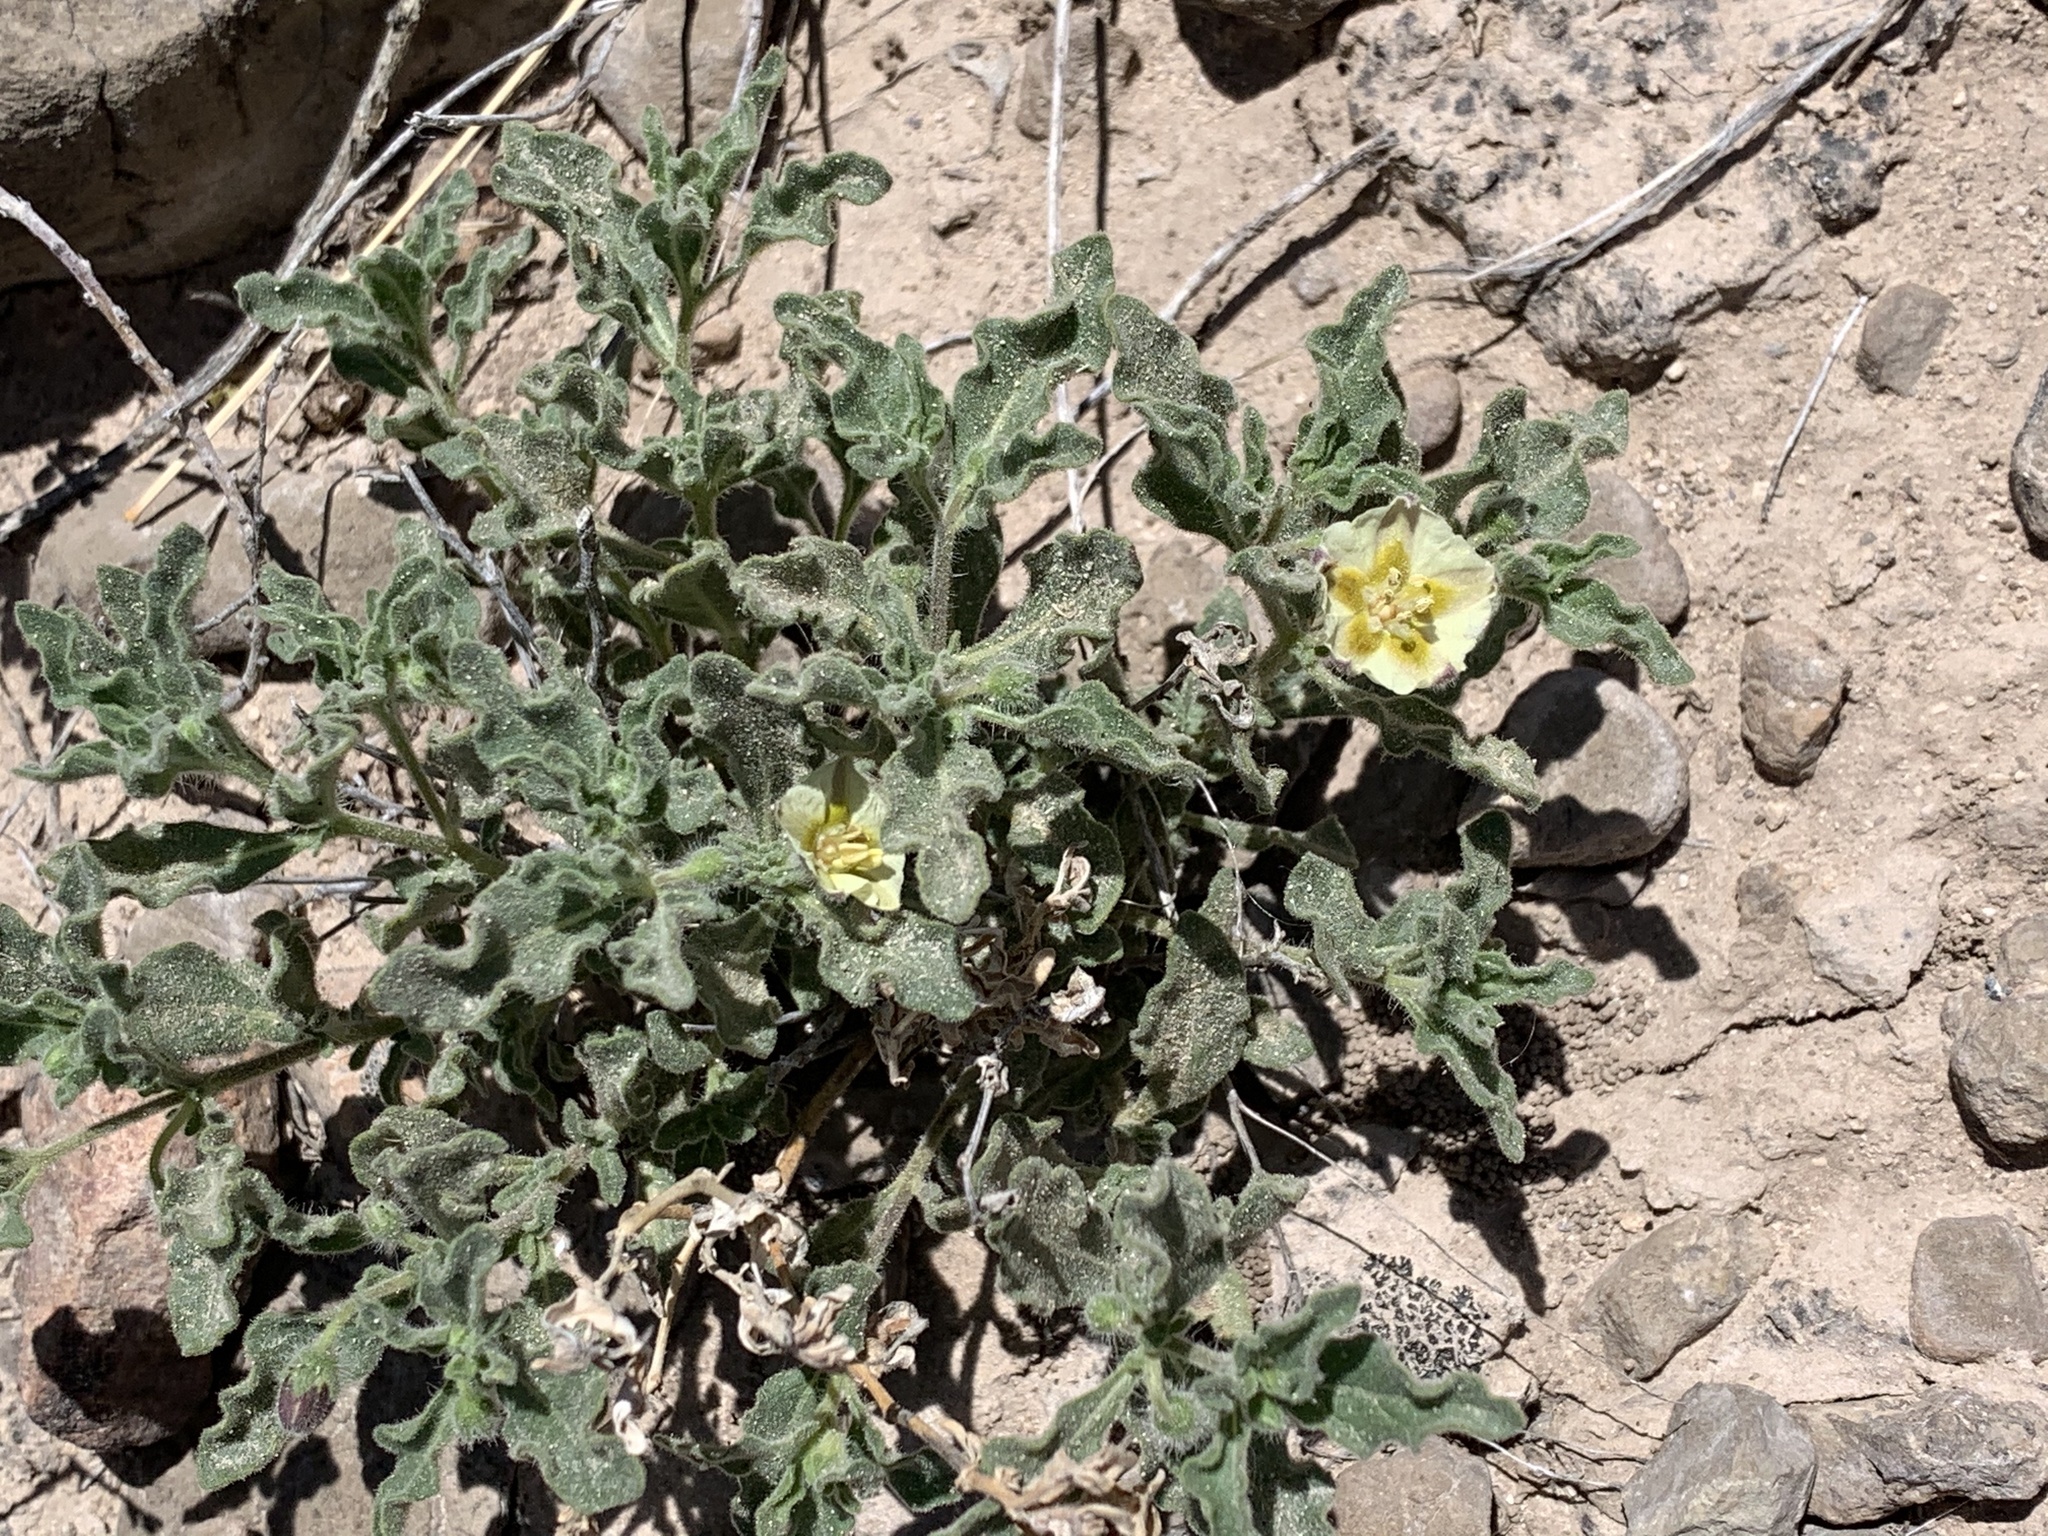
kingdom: Plantae
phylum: Tracheophyta
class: Magnoliopsida
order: Solanales
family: Solanaceae
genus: Chamaesaracha
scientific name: Chamaesaracha sordida
